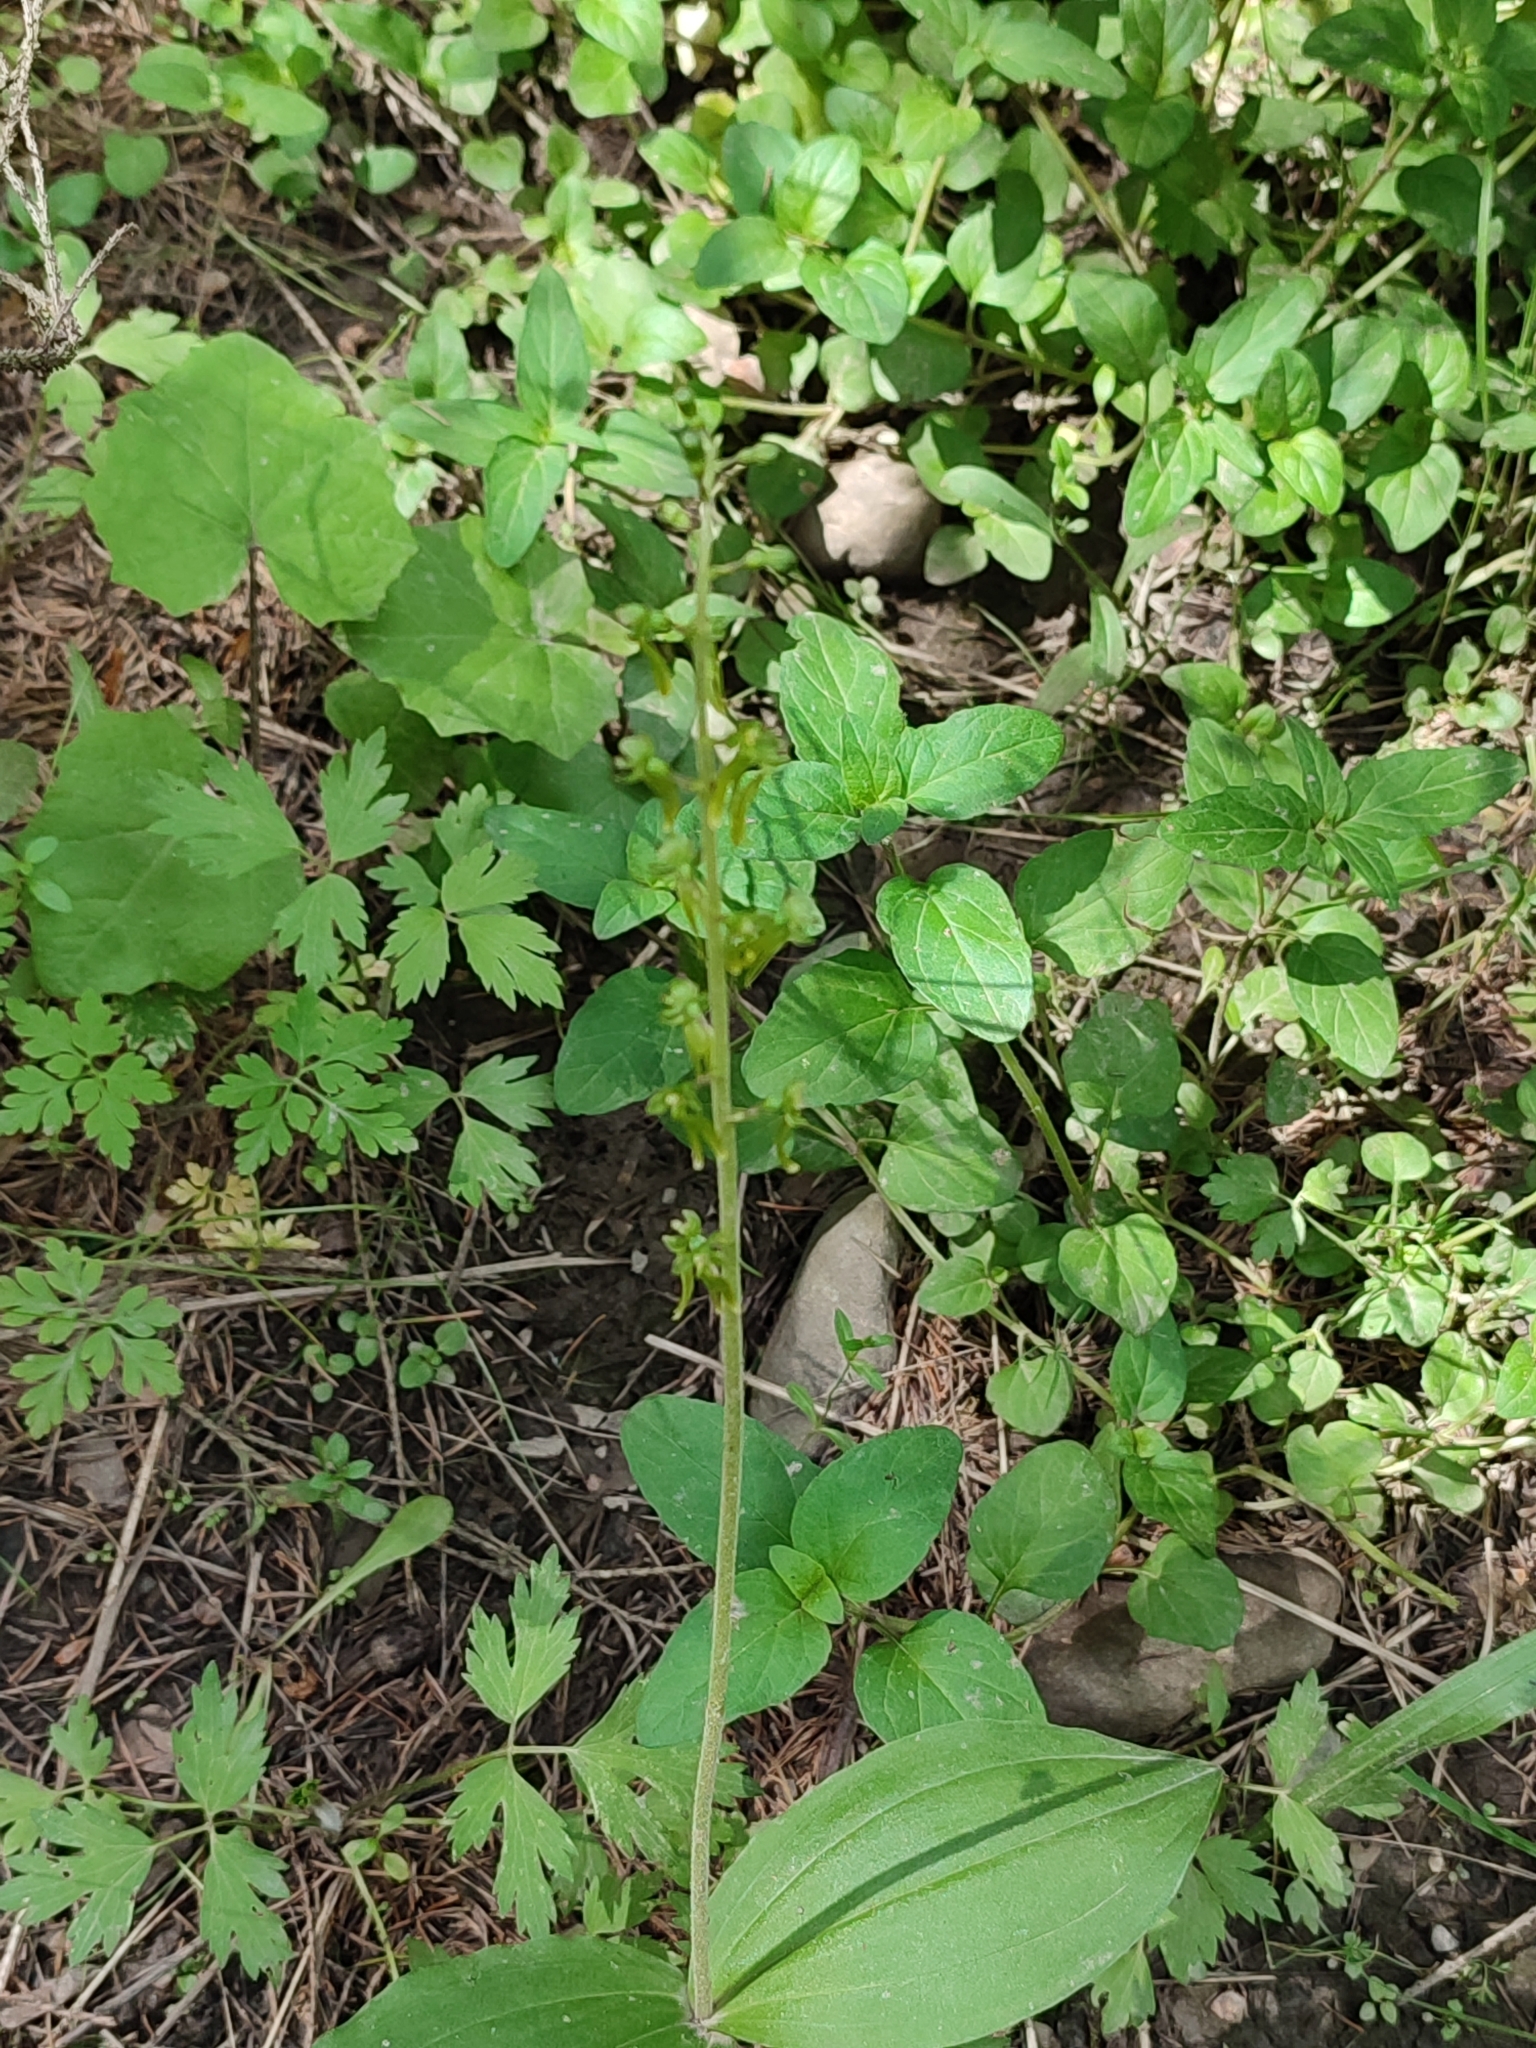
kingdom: Plantae
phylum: Tracheophyta
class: Liliopsida
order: Asparagales
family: Orchidaceae
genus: Neottia
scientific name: Neottia ovata
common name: Common twayblade
